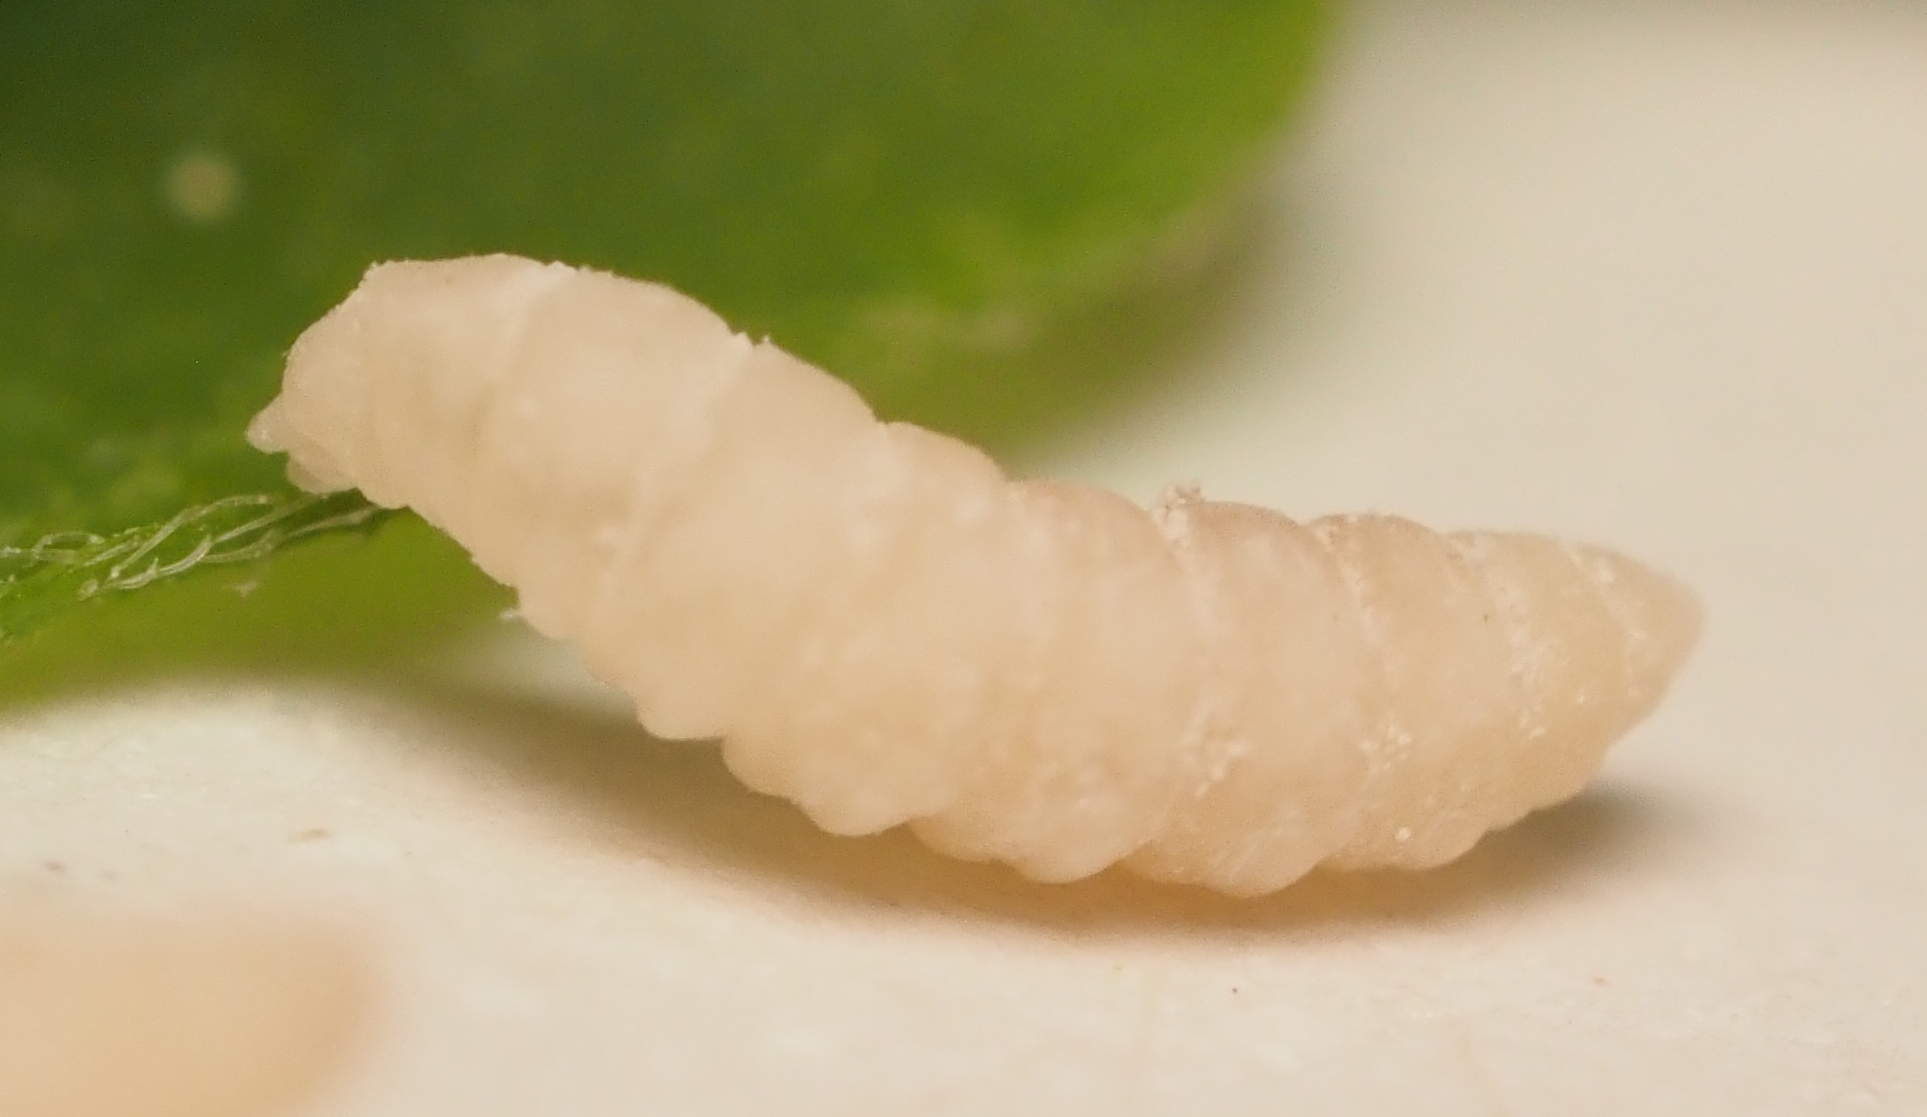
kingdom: Animalia
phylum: Arthropoda
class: Insecta
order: Diptera
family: Cecidomyiidae
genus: Peracecis
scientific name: Peracecis fugitiva
